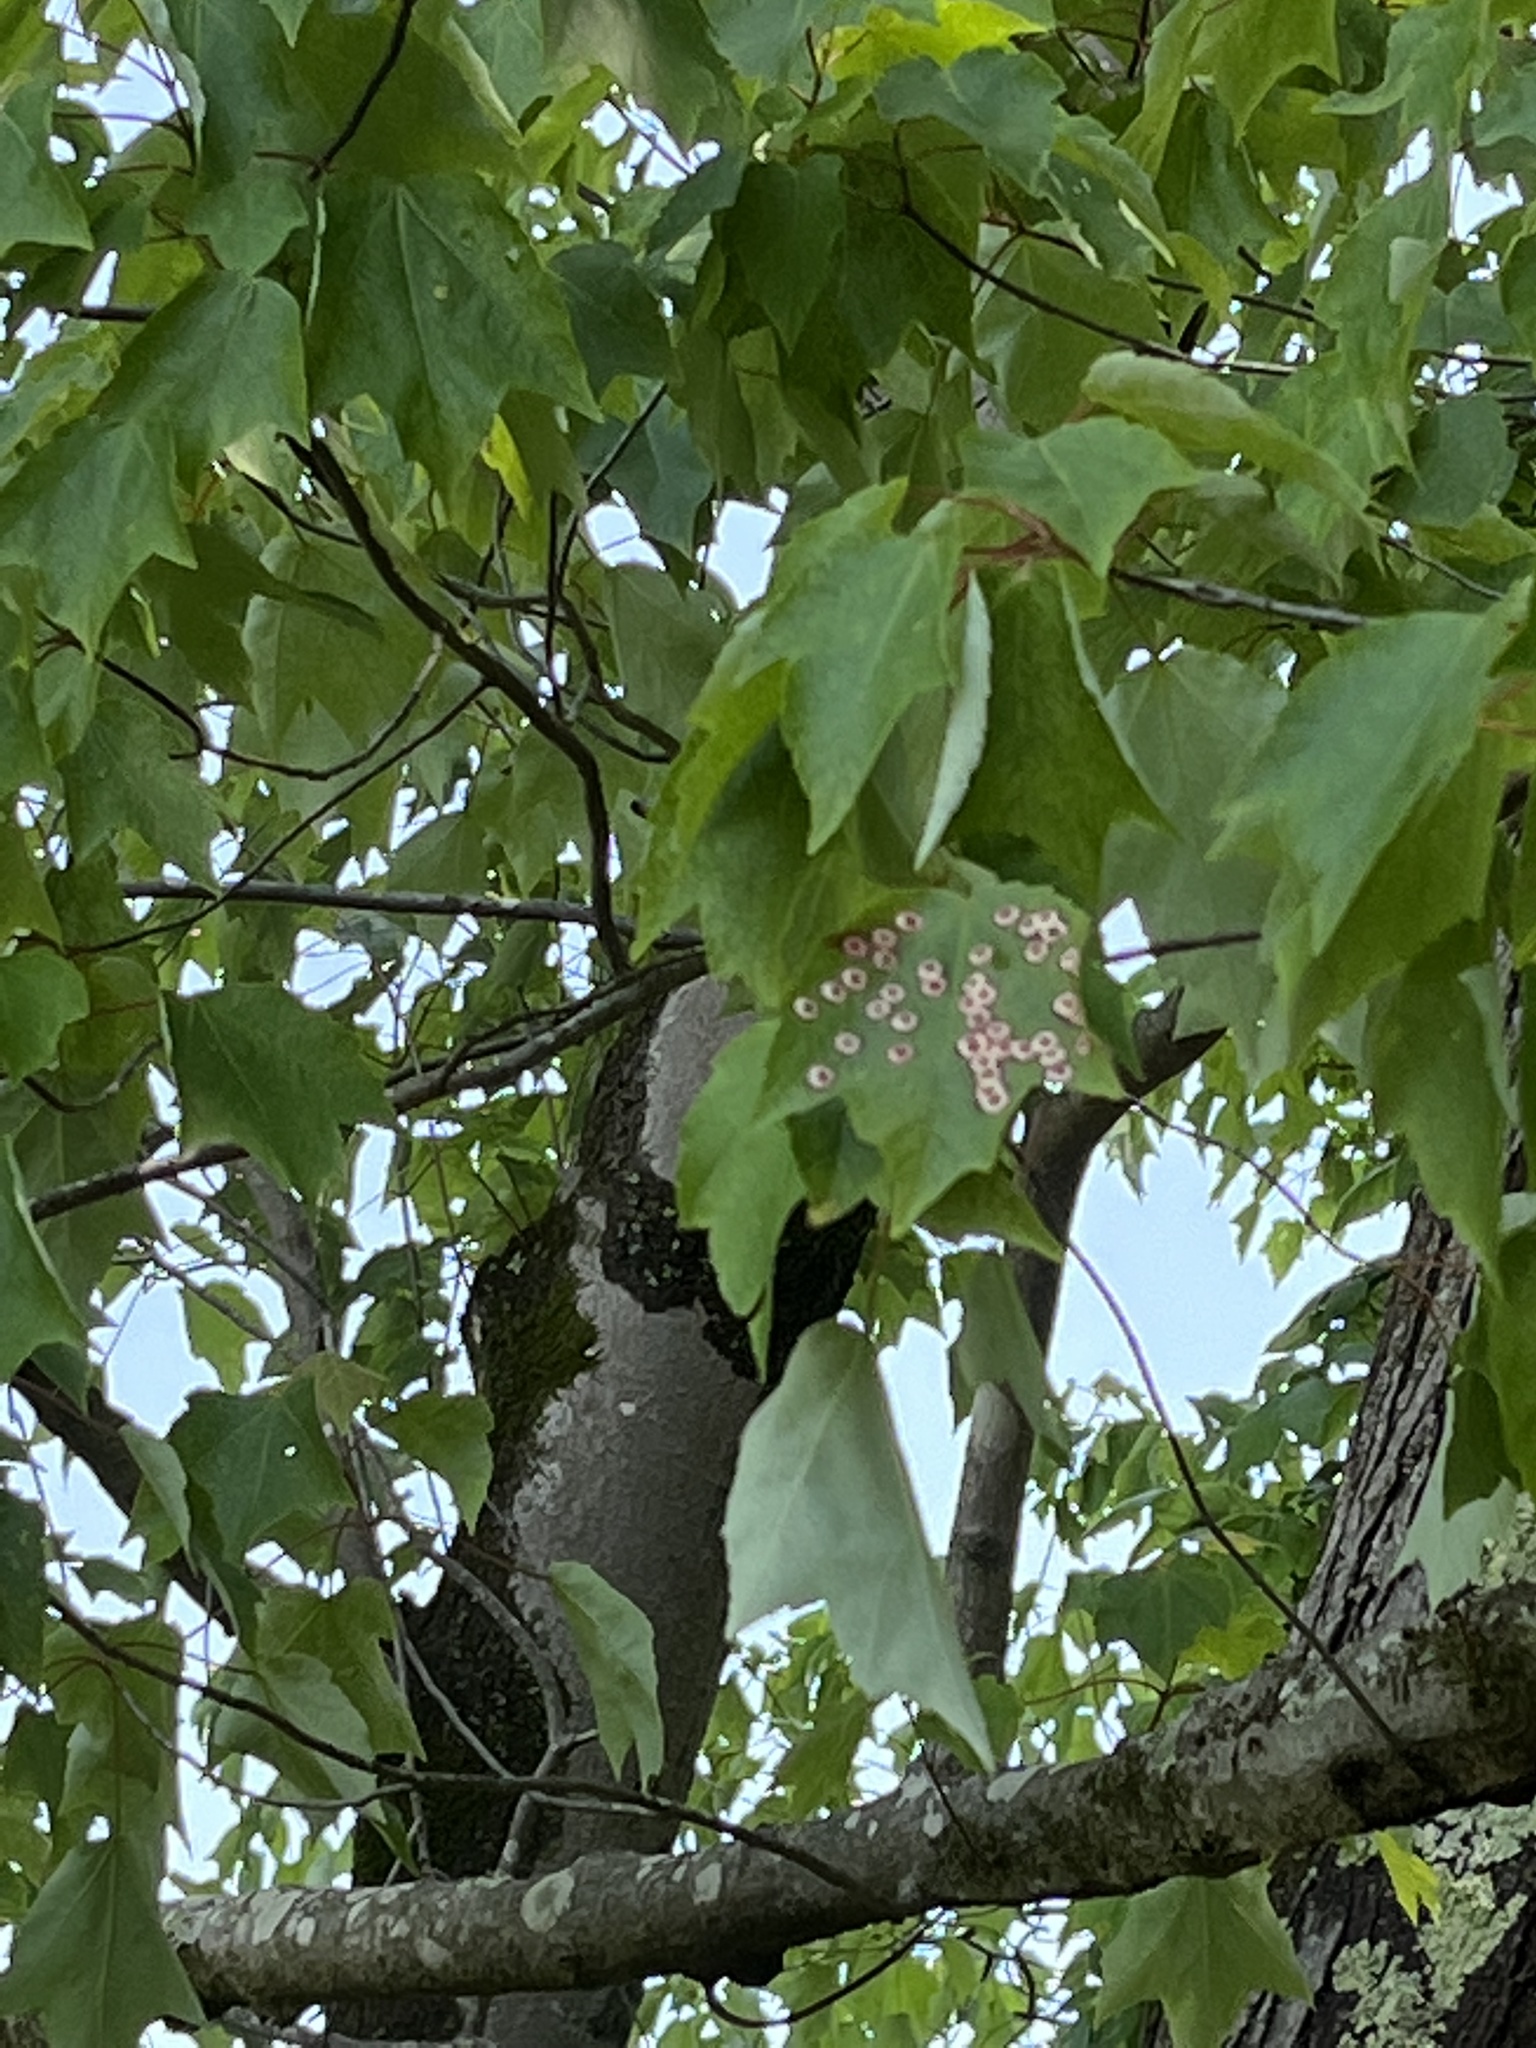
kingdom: Animalia
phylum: Arthropoda
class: Insecta
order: Diptera
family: Cecidomyiidae
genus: Acericecis
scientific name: Acericecis ocellaris
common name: Ocellate gall midge
